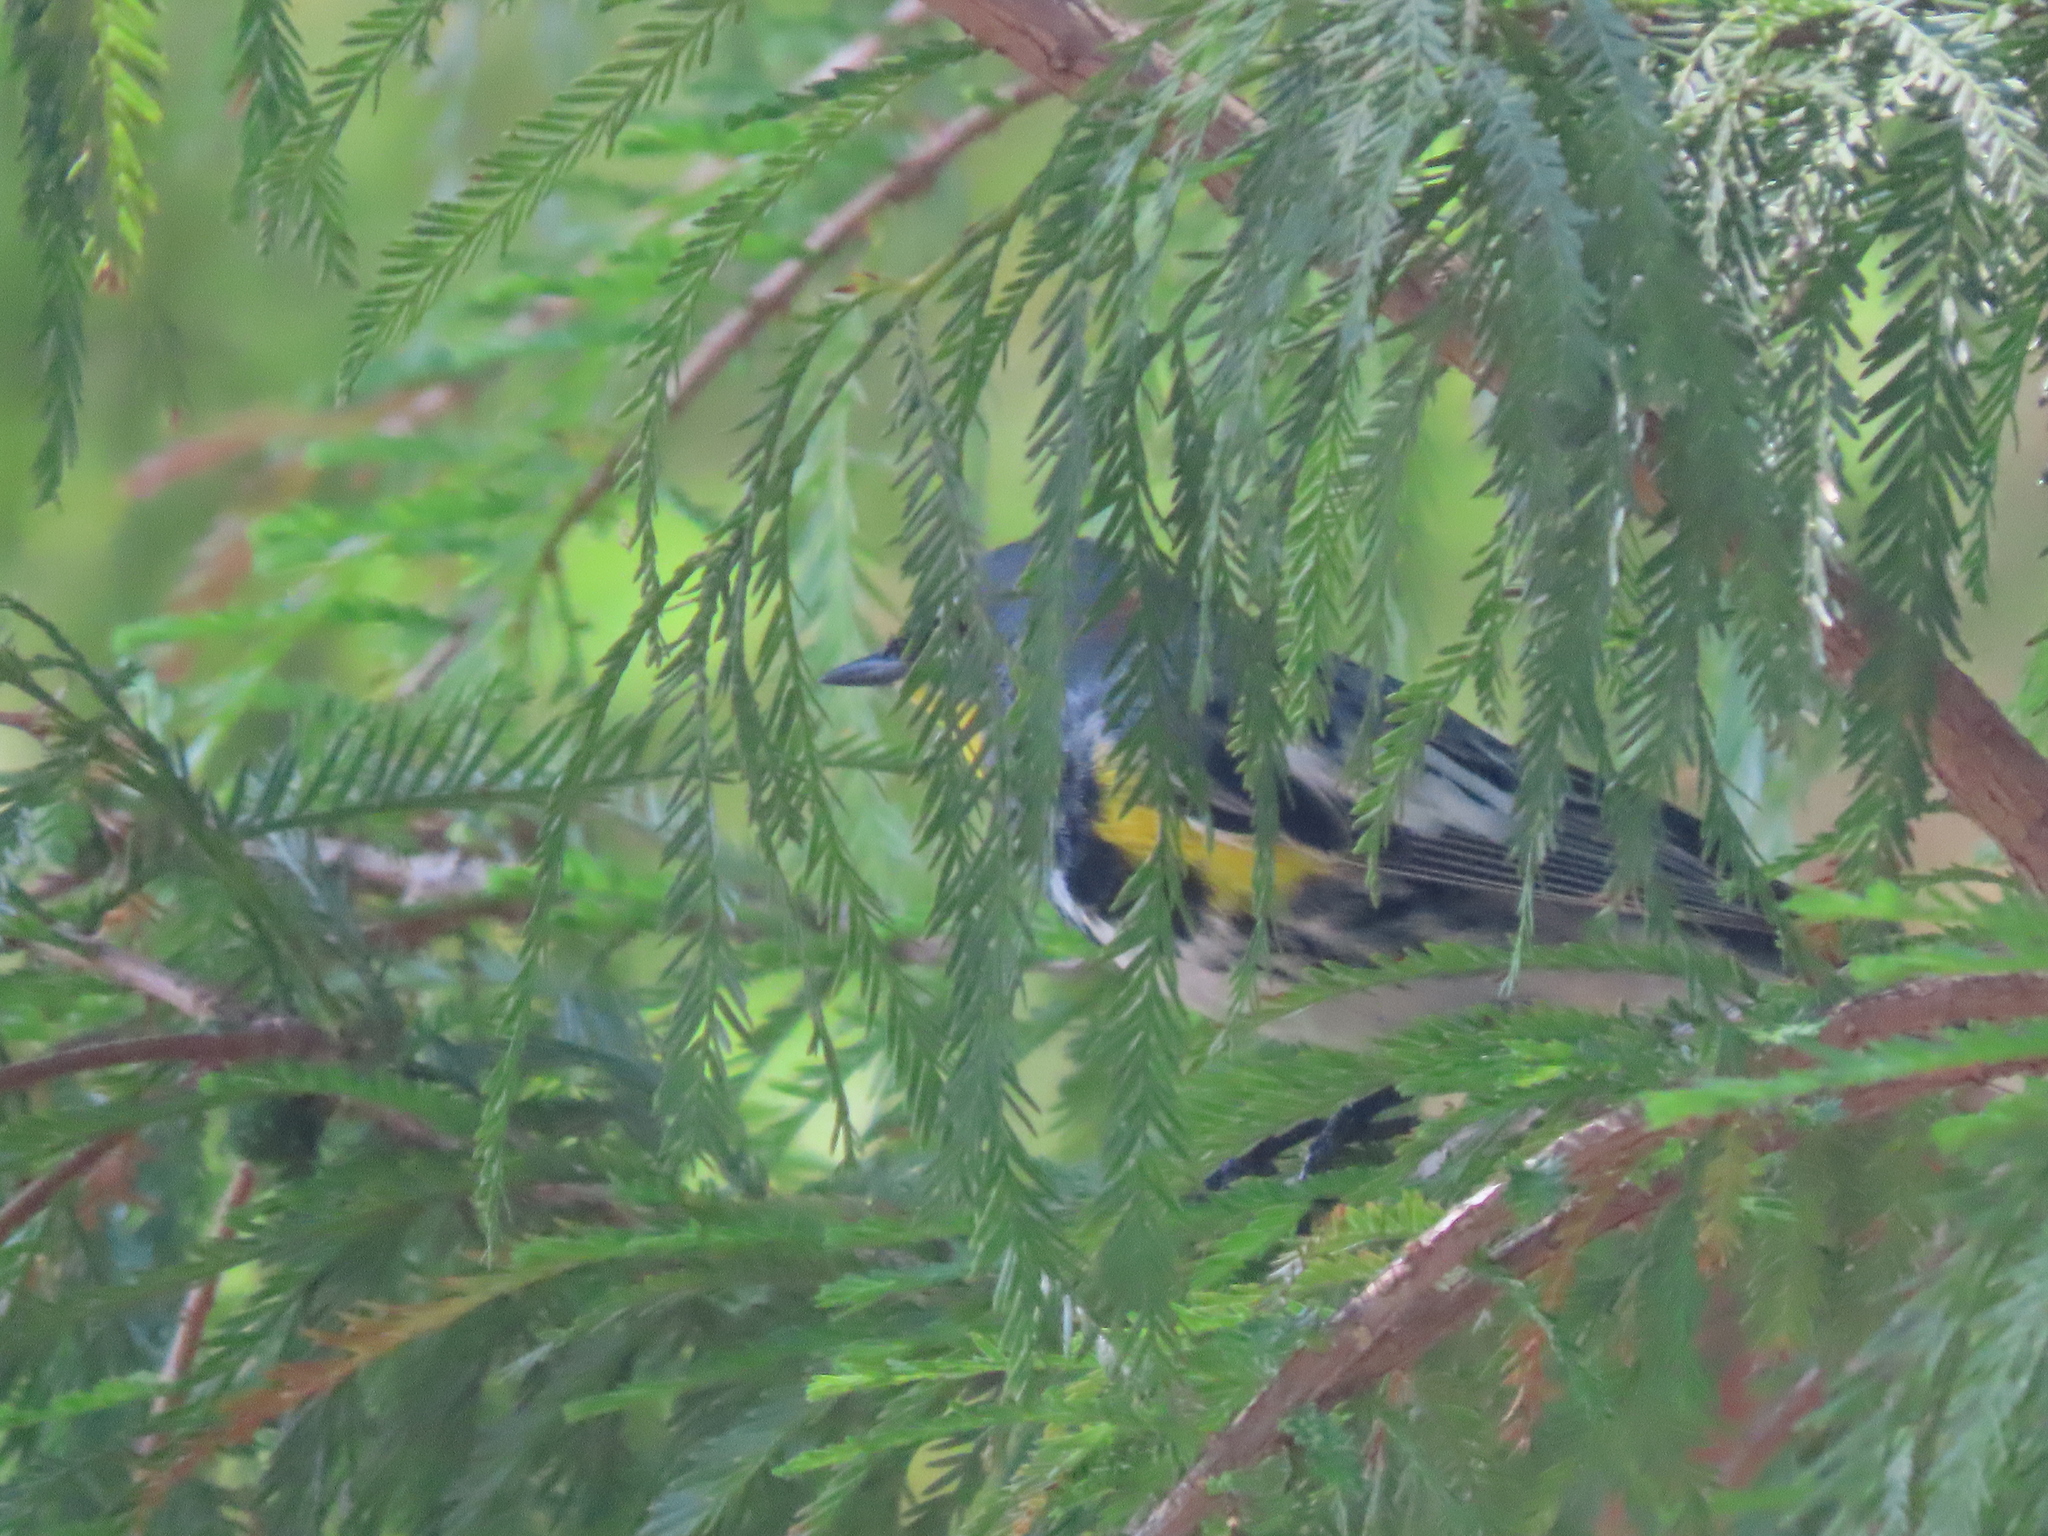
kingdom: Animalia
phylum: Chordata
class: Aves
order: Passeriformes
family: Parulidae
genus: Setophaga
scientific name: Setophaga auduboni
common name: Audubon's warbler
